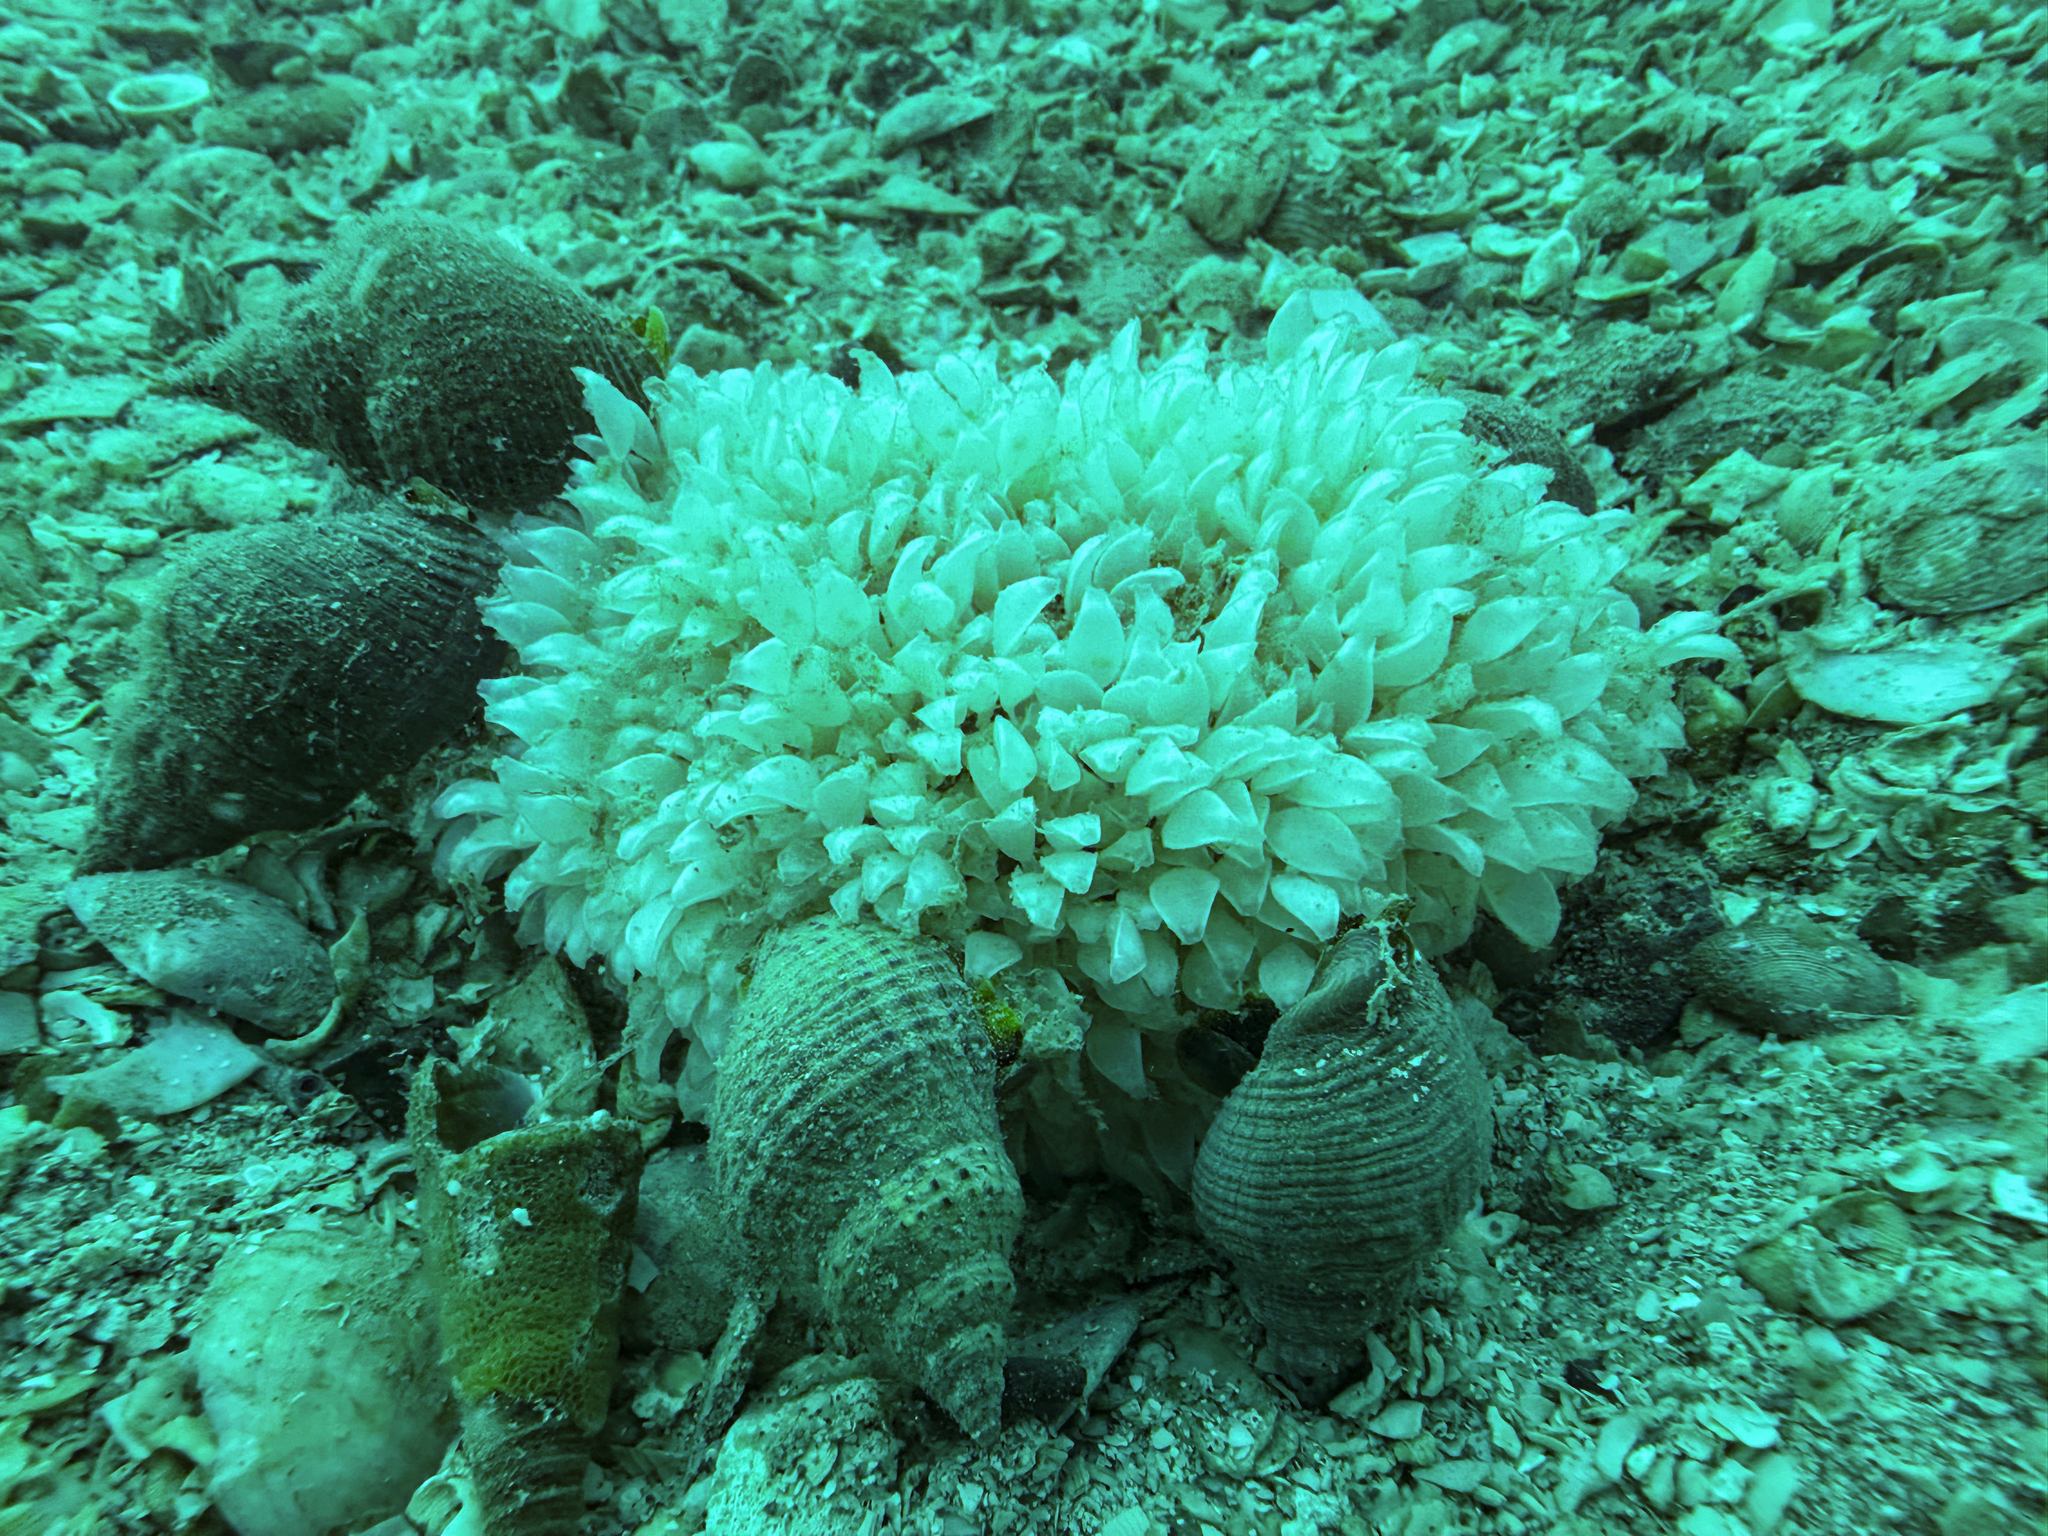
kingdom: Animalia
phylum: Mollusca
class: Gastropoda
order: Neogastropoda
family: Cominellidae
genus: Cominella
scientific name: Cominella adspersa
